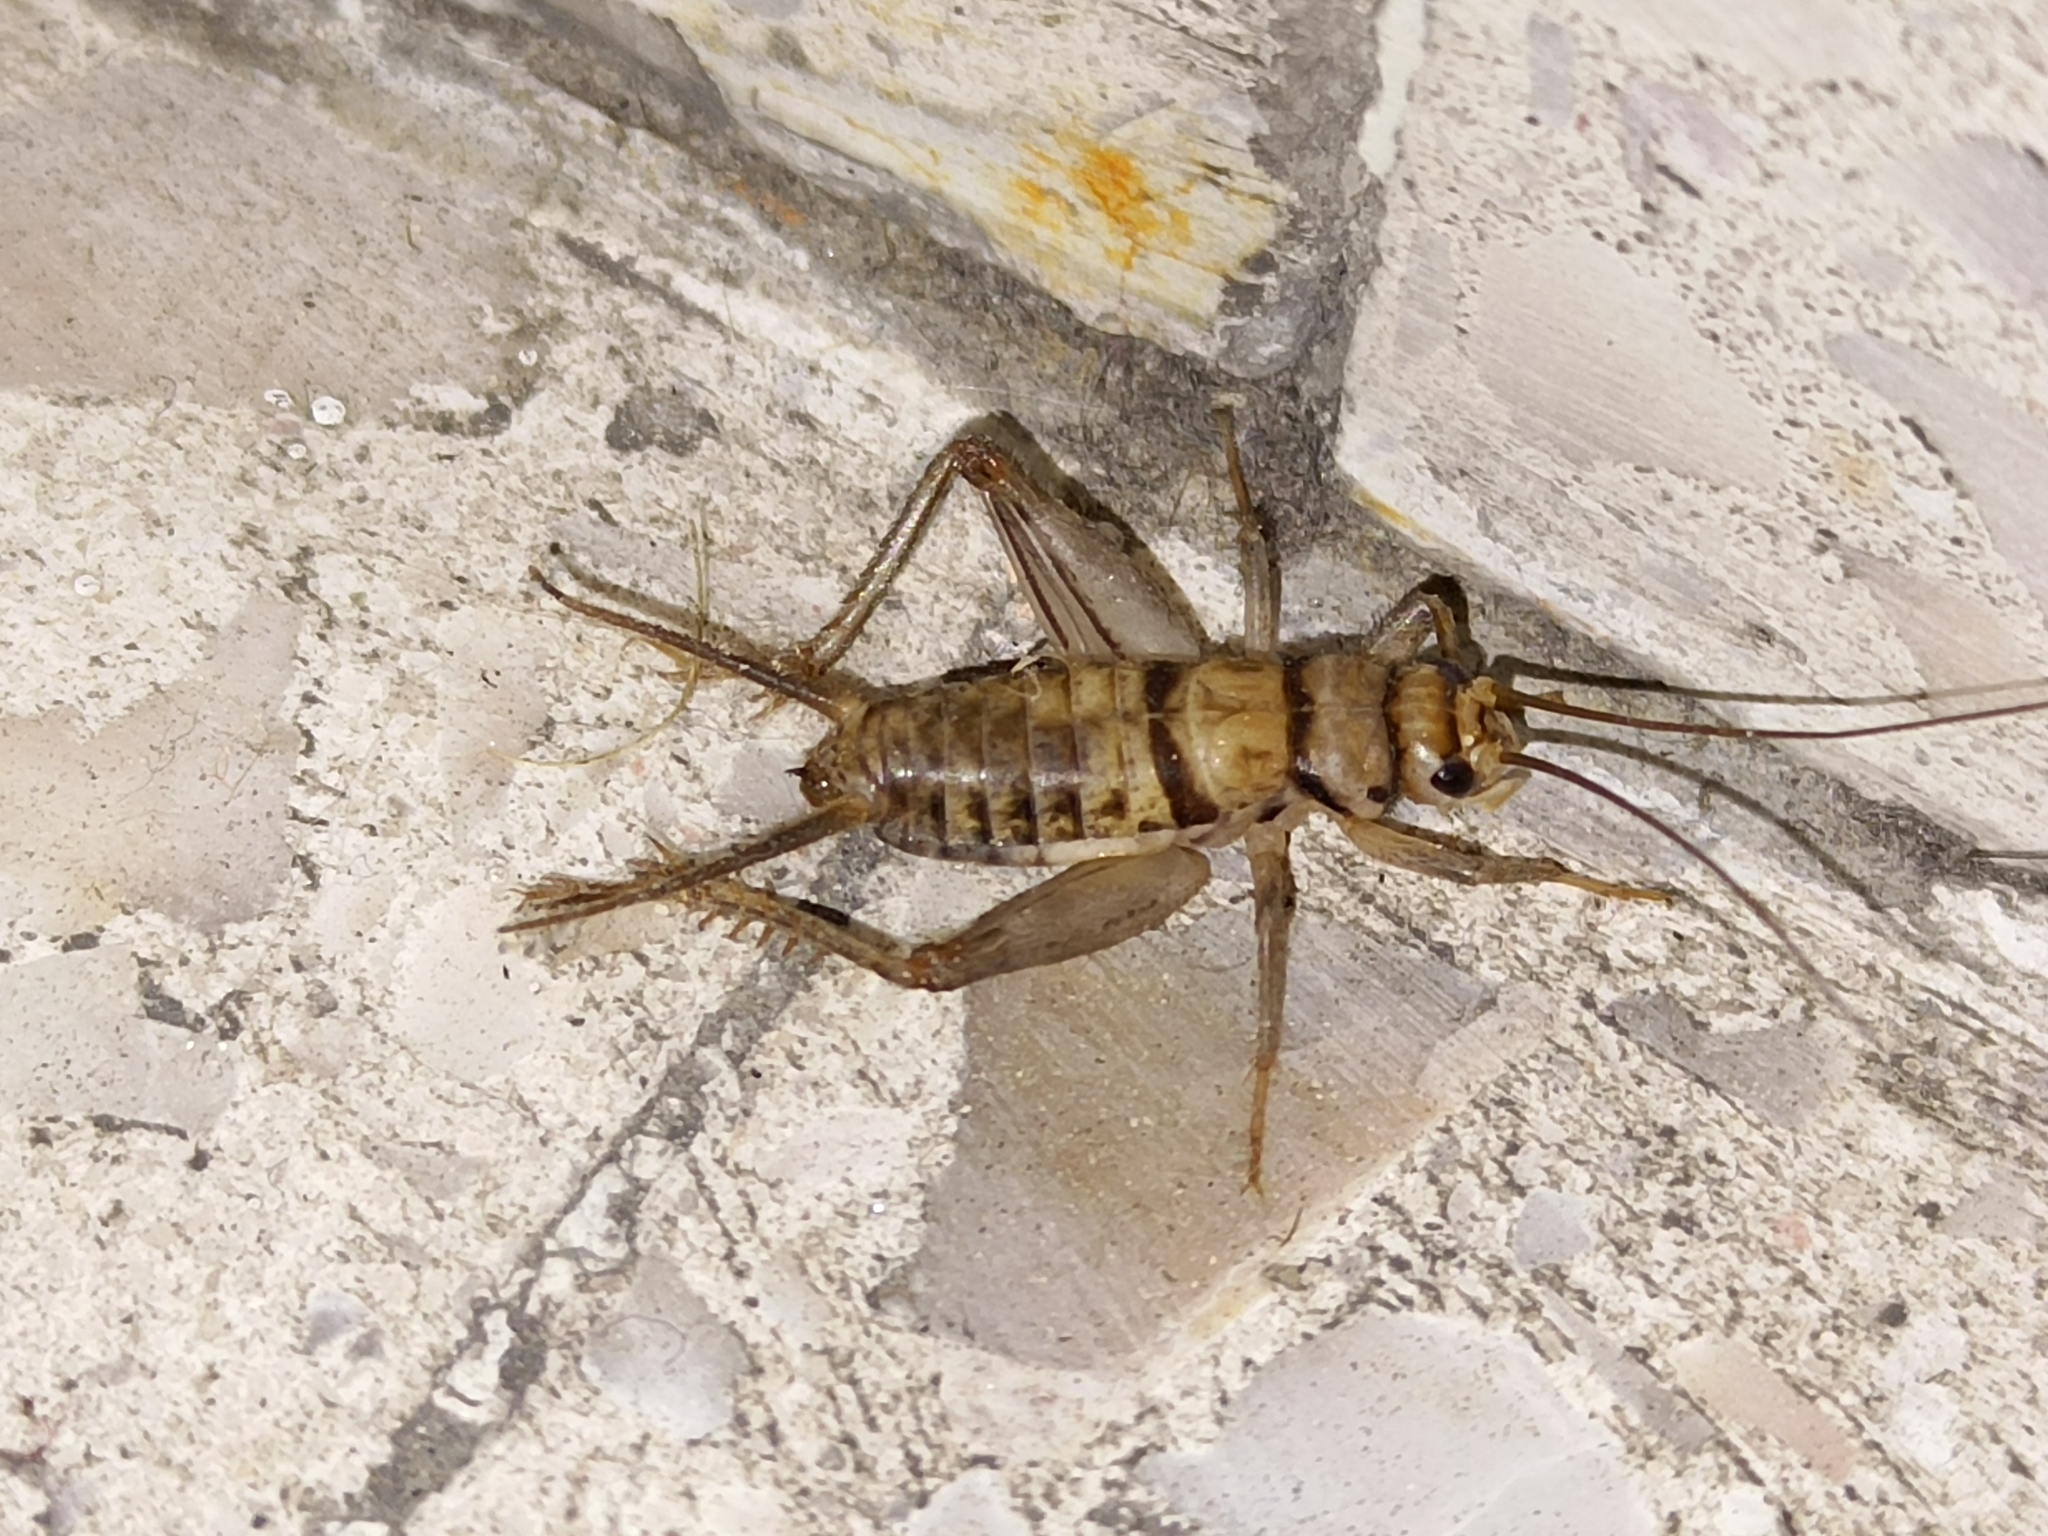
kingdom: Animalia
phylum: Arthropoda
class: Insecta
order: Orthoptera
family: Gryllidae
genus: Gryllodes
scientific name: Gryllodes sigillatus
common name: Tropical house cricket
